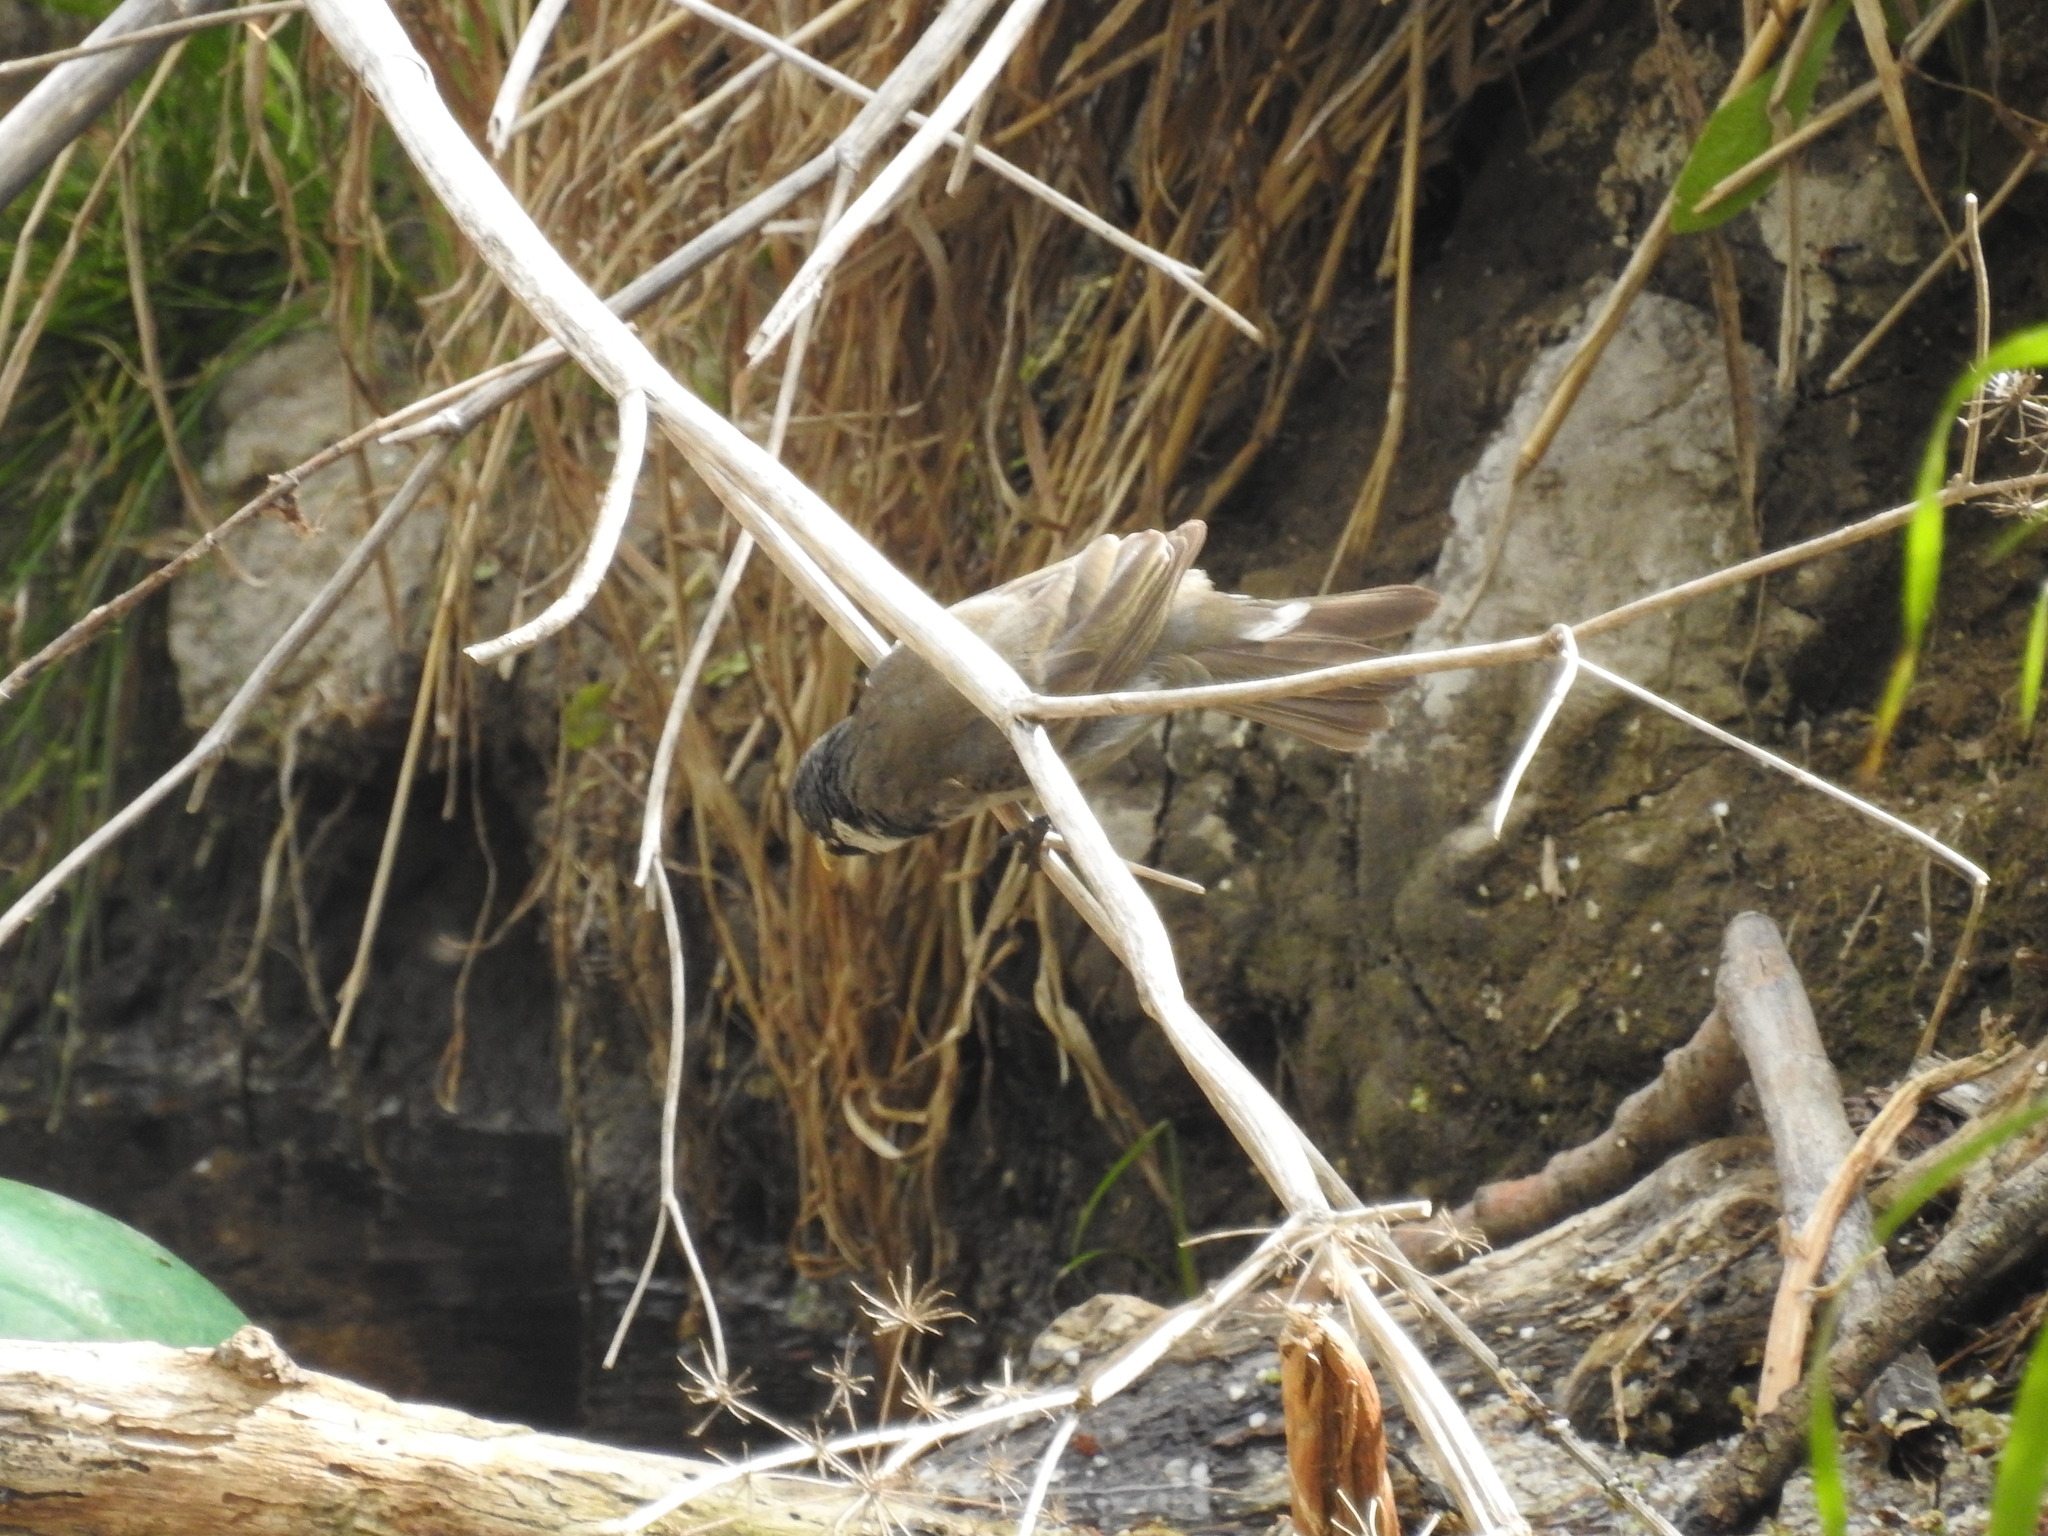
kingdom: Animalia
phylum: Chordata
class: Aves
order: Passeriformes
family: Thraupidae
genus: Sporophila
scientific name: Sporophila caerulescens
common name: Double-collared seedeater
